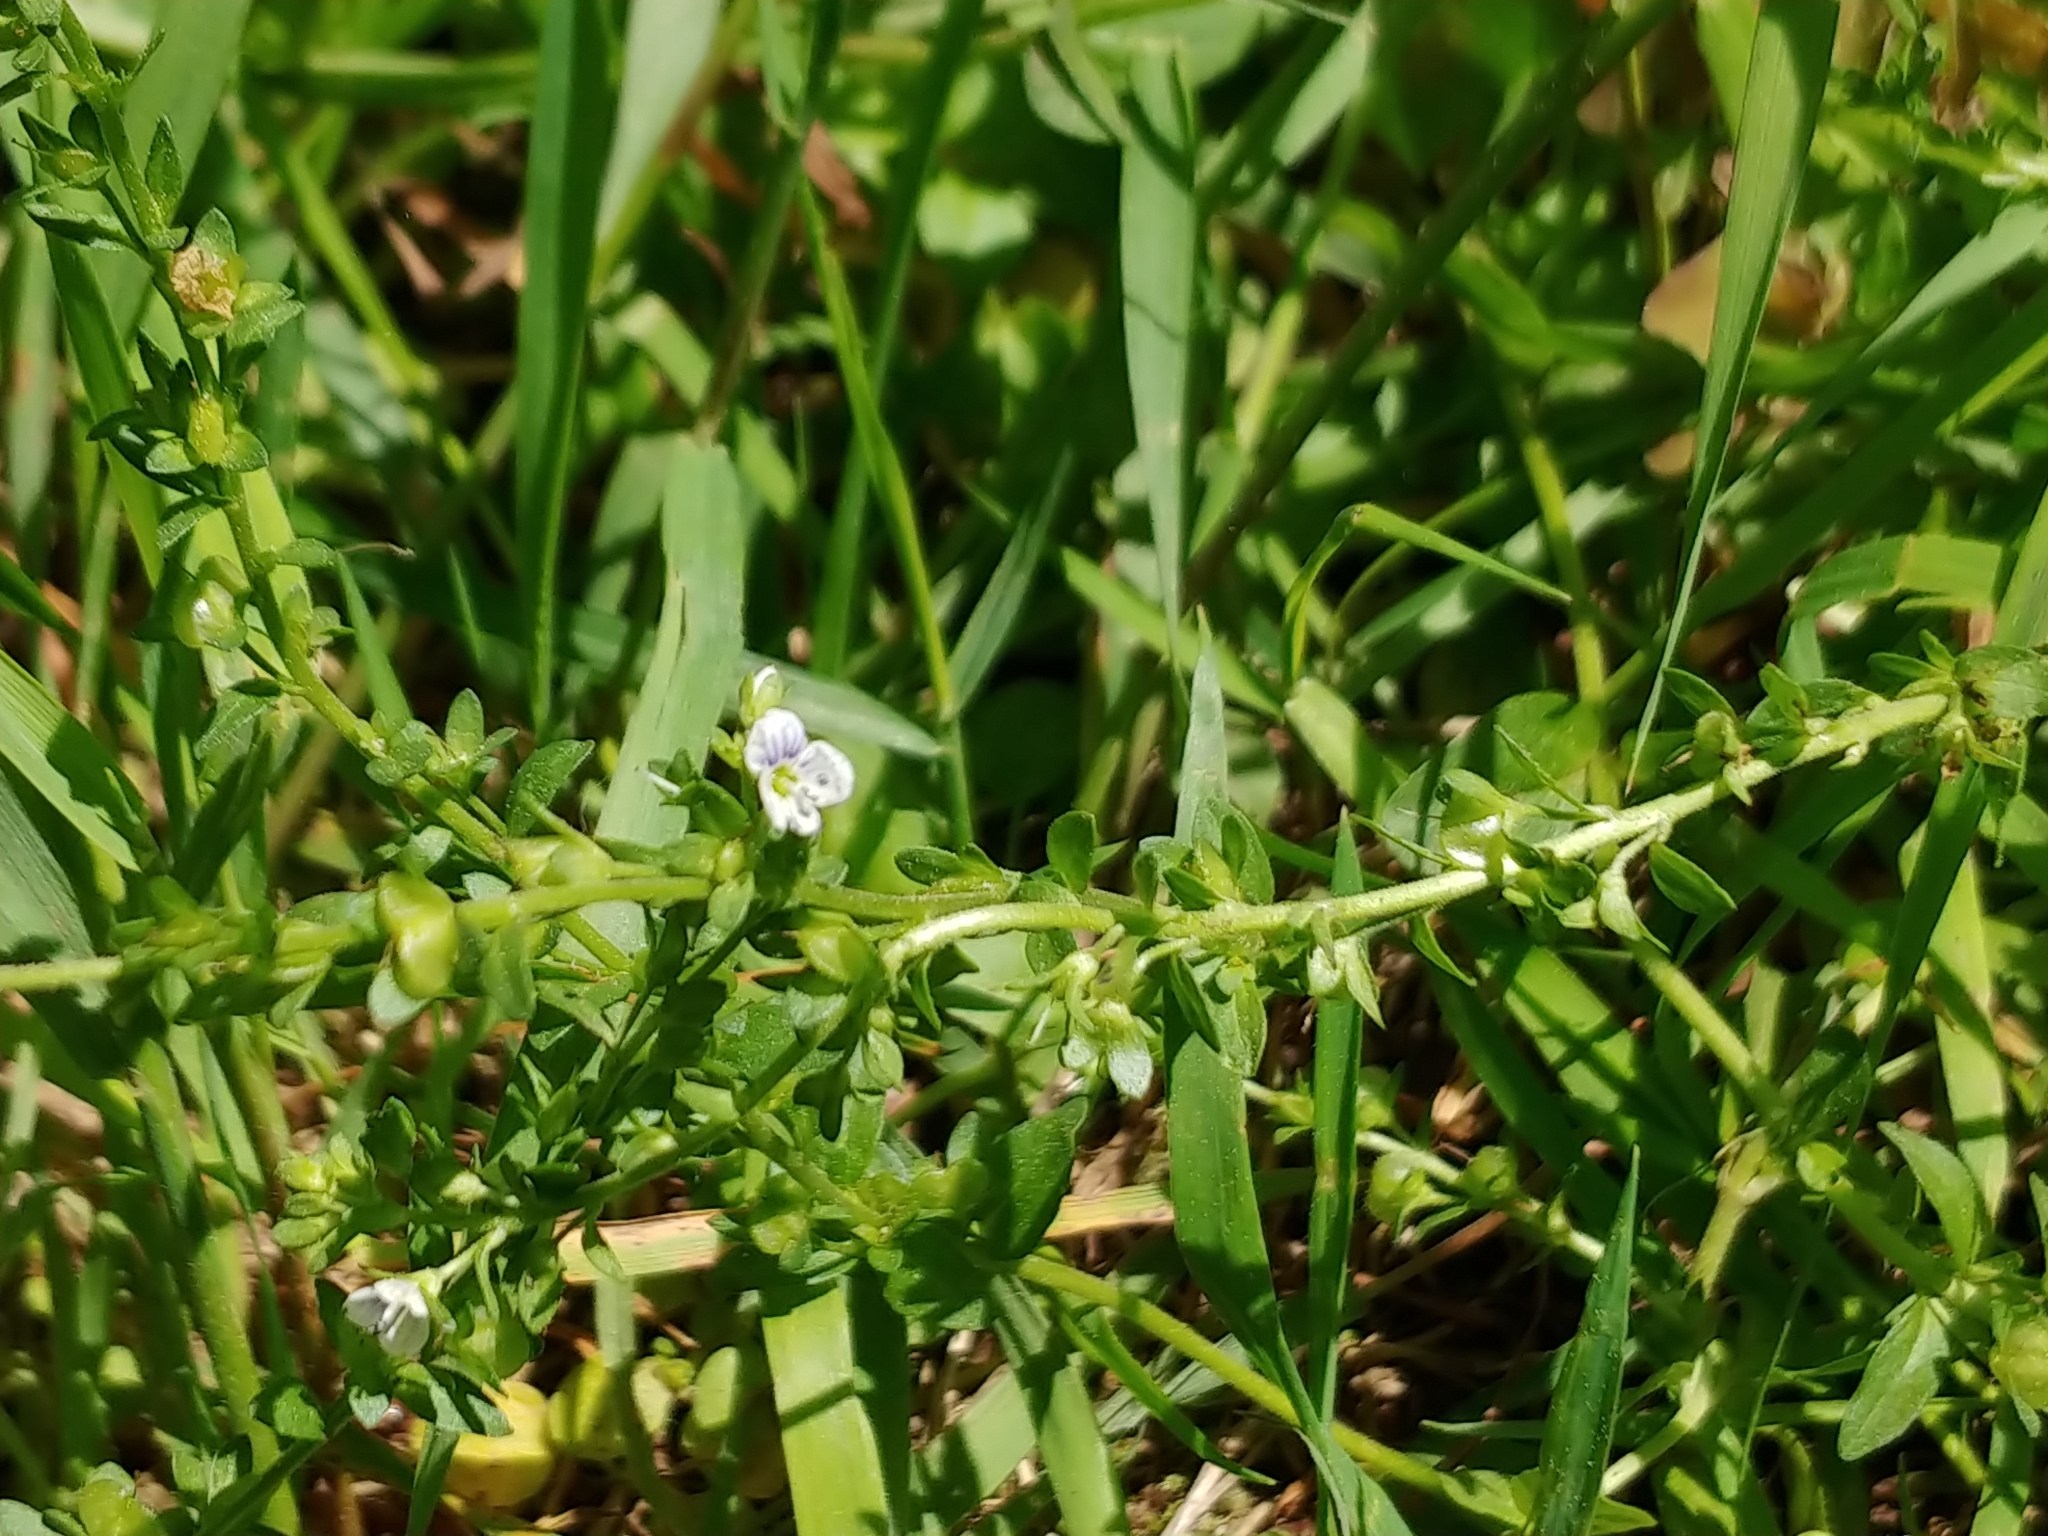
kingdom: Plantae
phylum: Tracheophyta
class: Magnoliopsida
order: Lamiales
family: Plantaginaceae
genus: Veronica
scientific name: Veronica serpyllifolia
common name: Thyme-leaved speedwell
